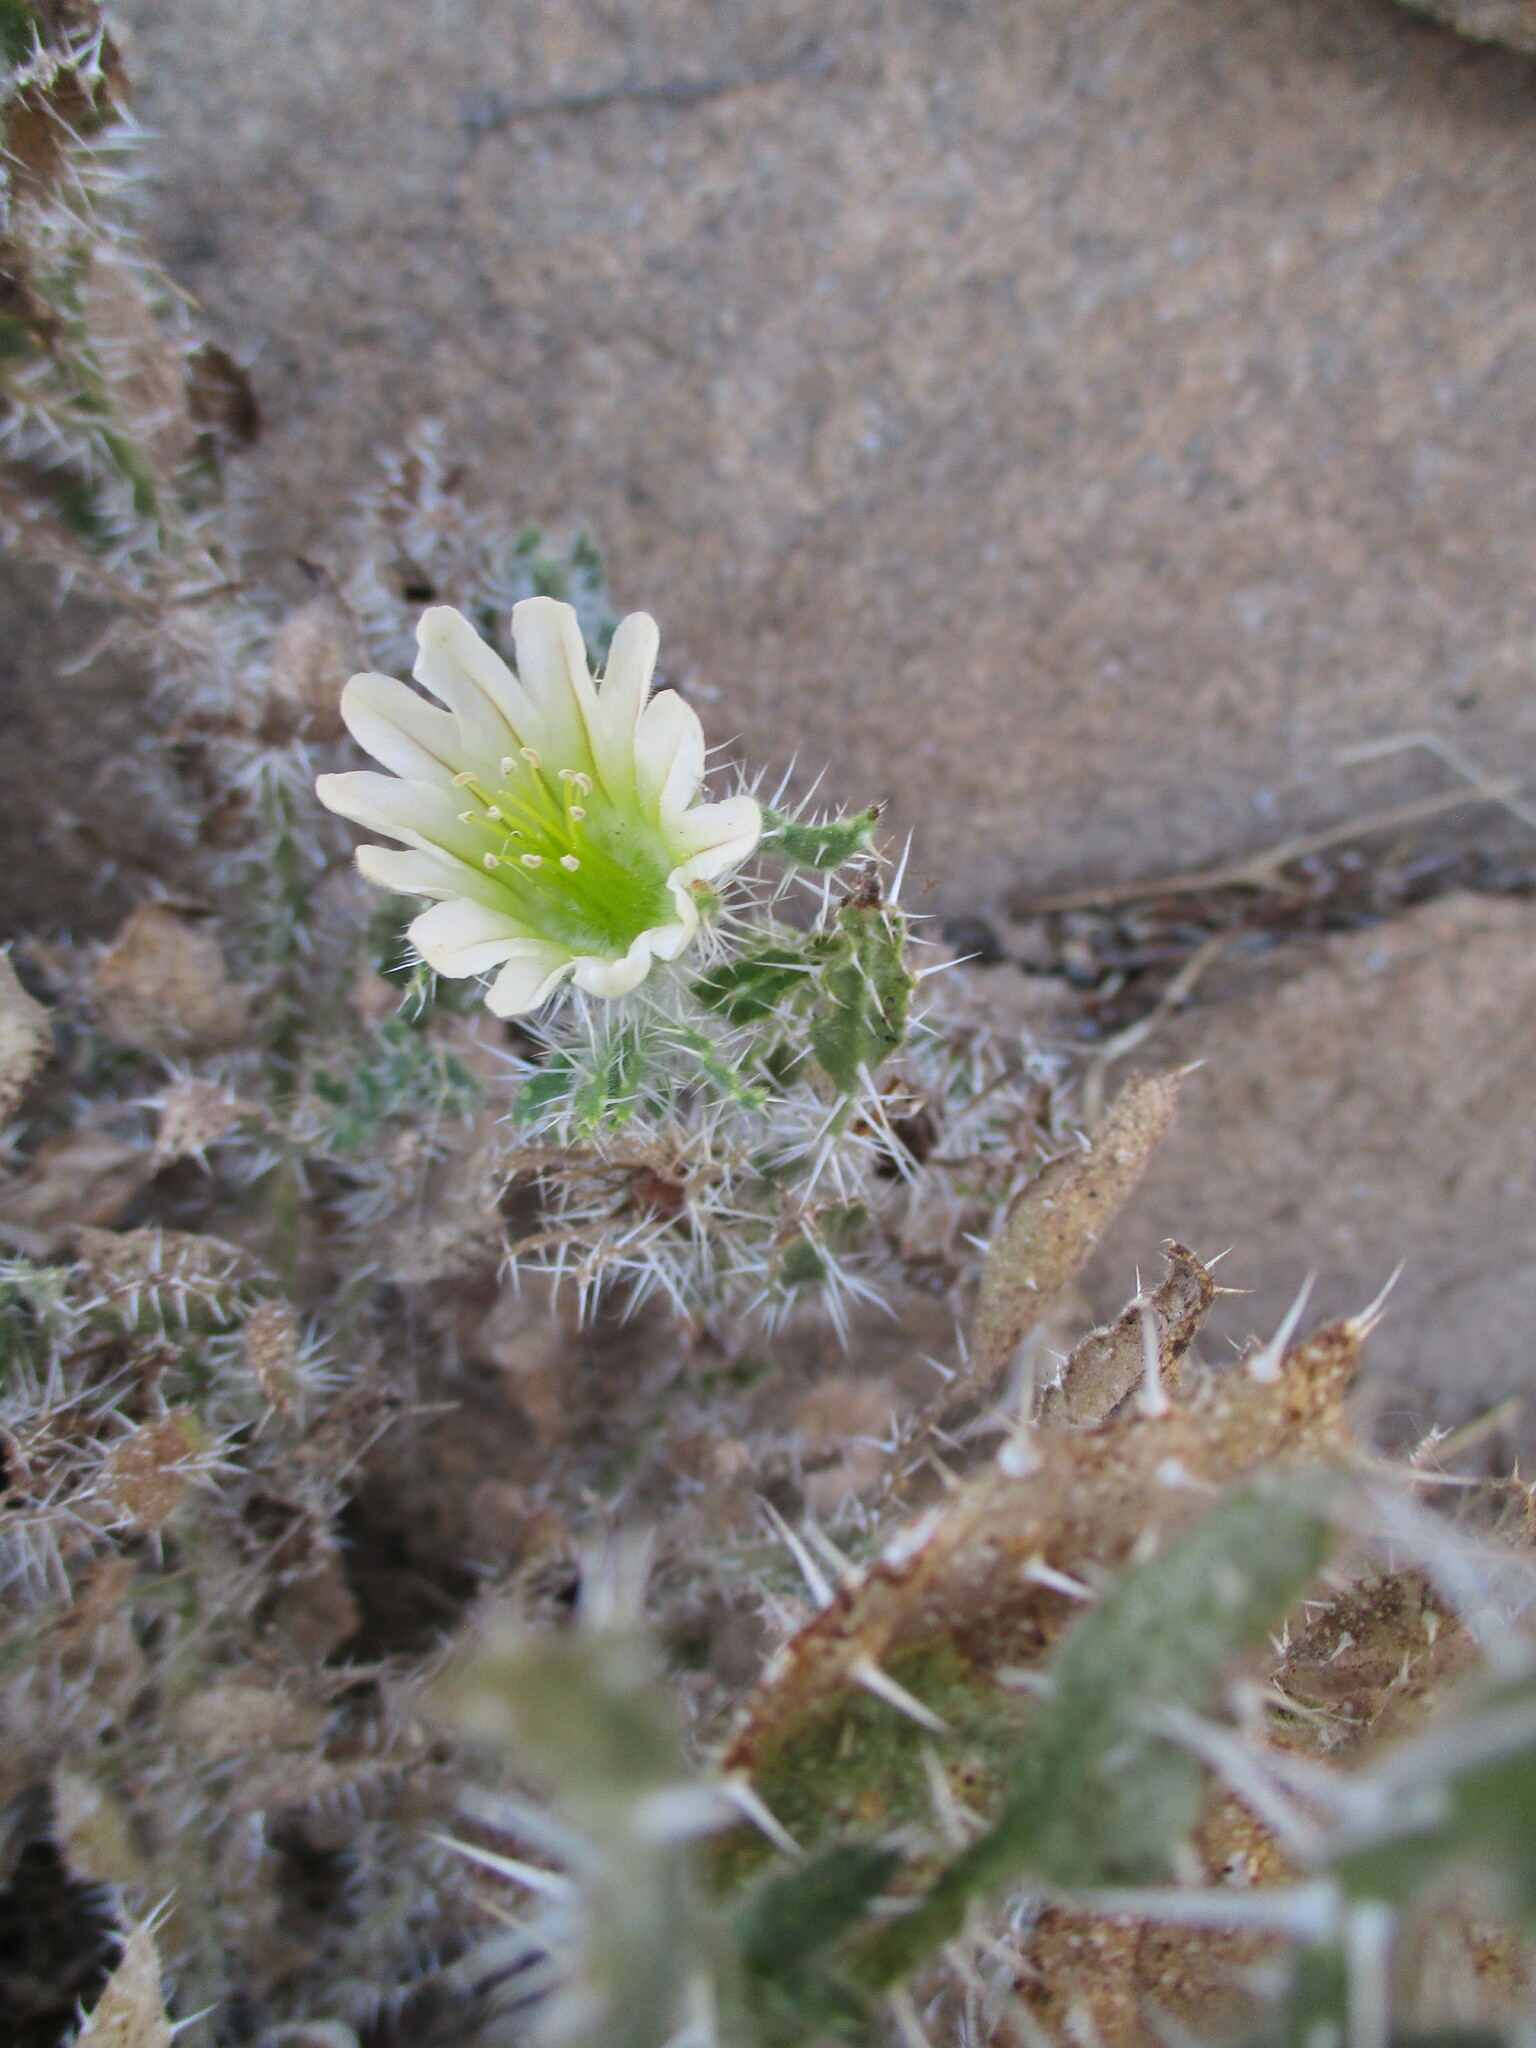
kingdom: Plantae
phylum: Tracheophyta
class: Magnoliopsida
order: Boraginales
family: Boraginaceae
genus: Codon
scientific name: Codon royenii
